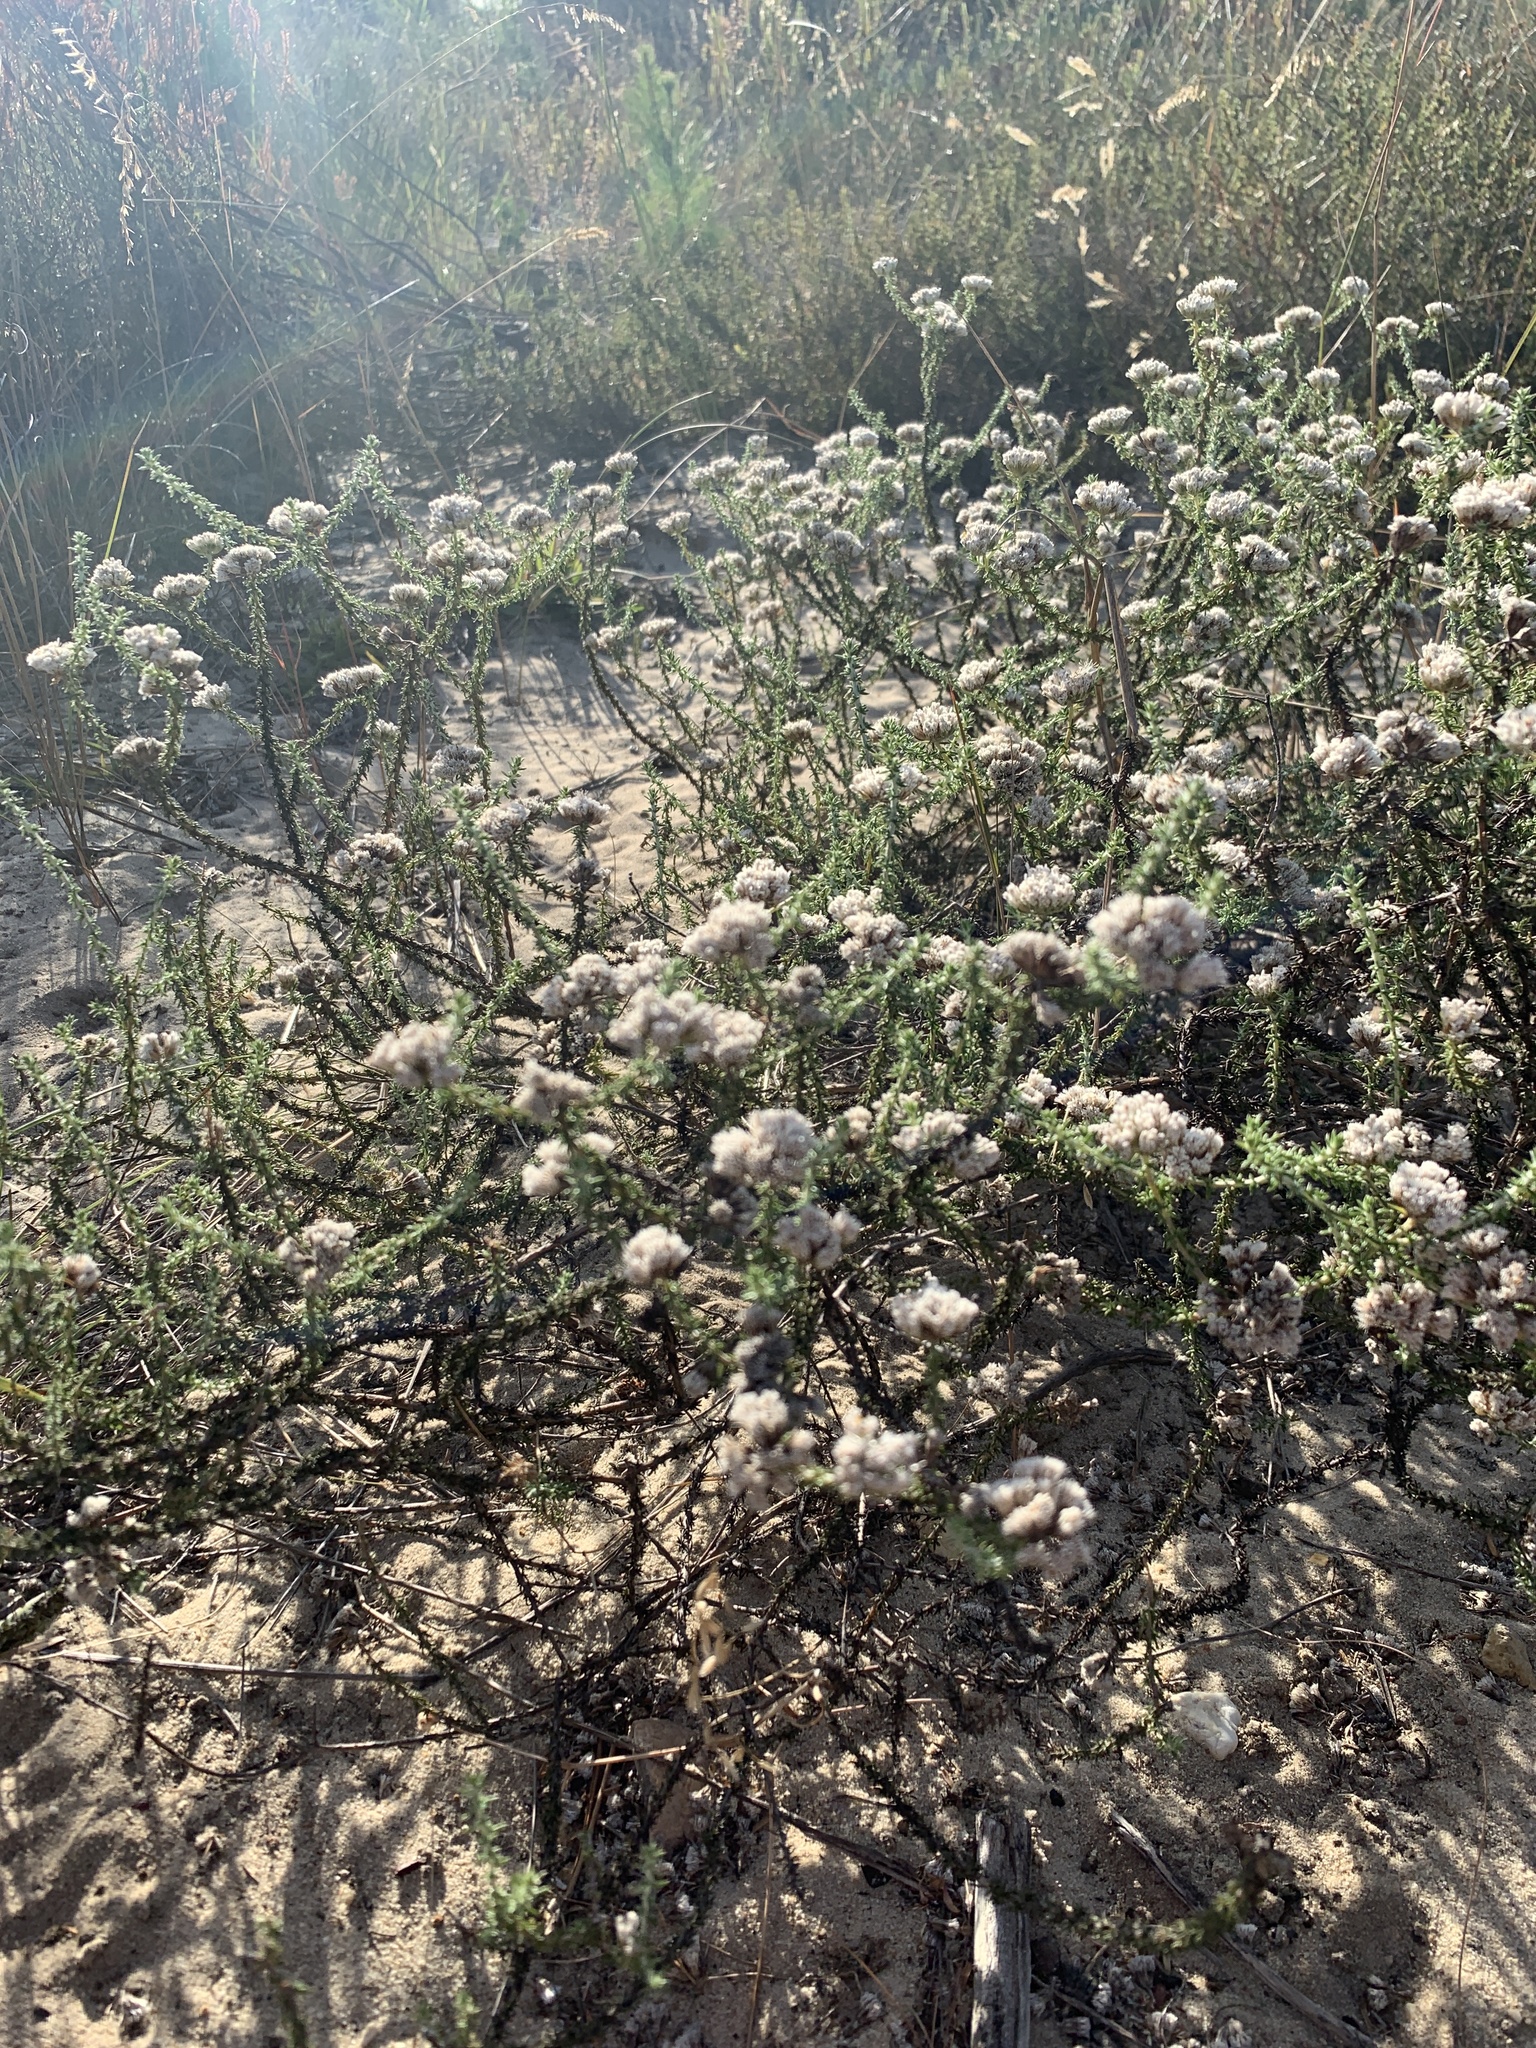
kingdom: Plantae
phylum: Tracheophyta
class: Magnoliopsida
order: Asterales
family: Asteraceae
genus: Metalasia
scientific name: Metalasia brevifolia
